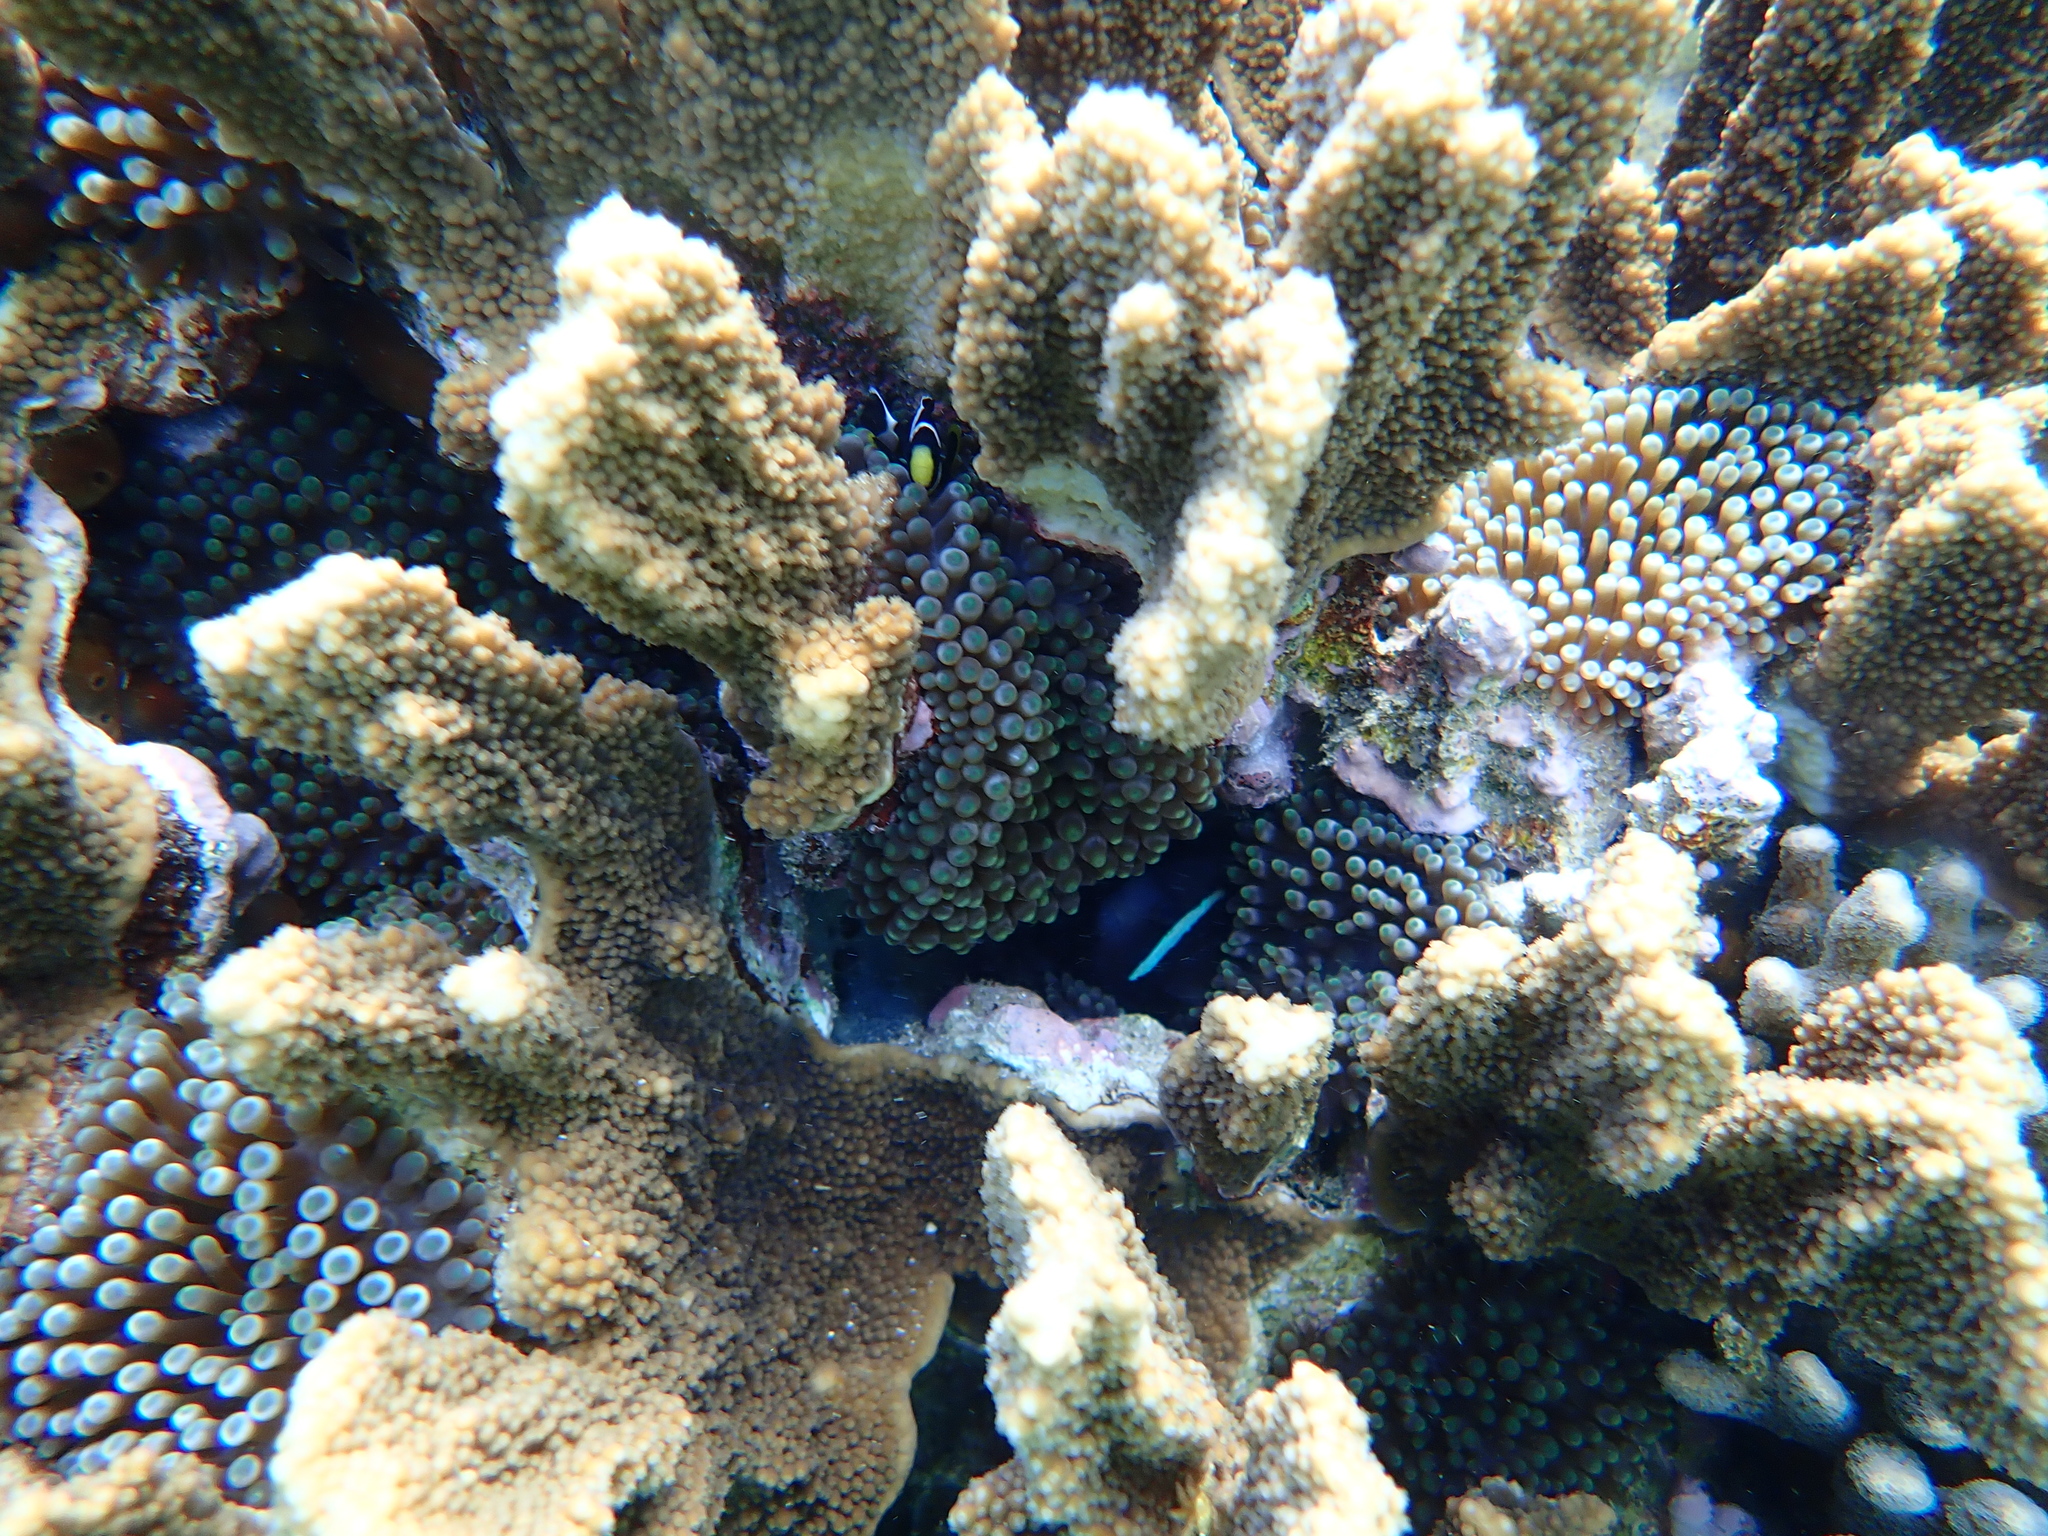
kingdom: Animalia
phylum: Cnidaria
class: Anthozoa
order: Actiniaria
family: Actiniidae
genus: Entacmaea
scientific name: Entacmaea quadricolor
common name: Bulb tentacle sea anemone
